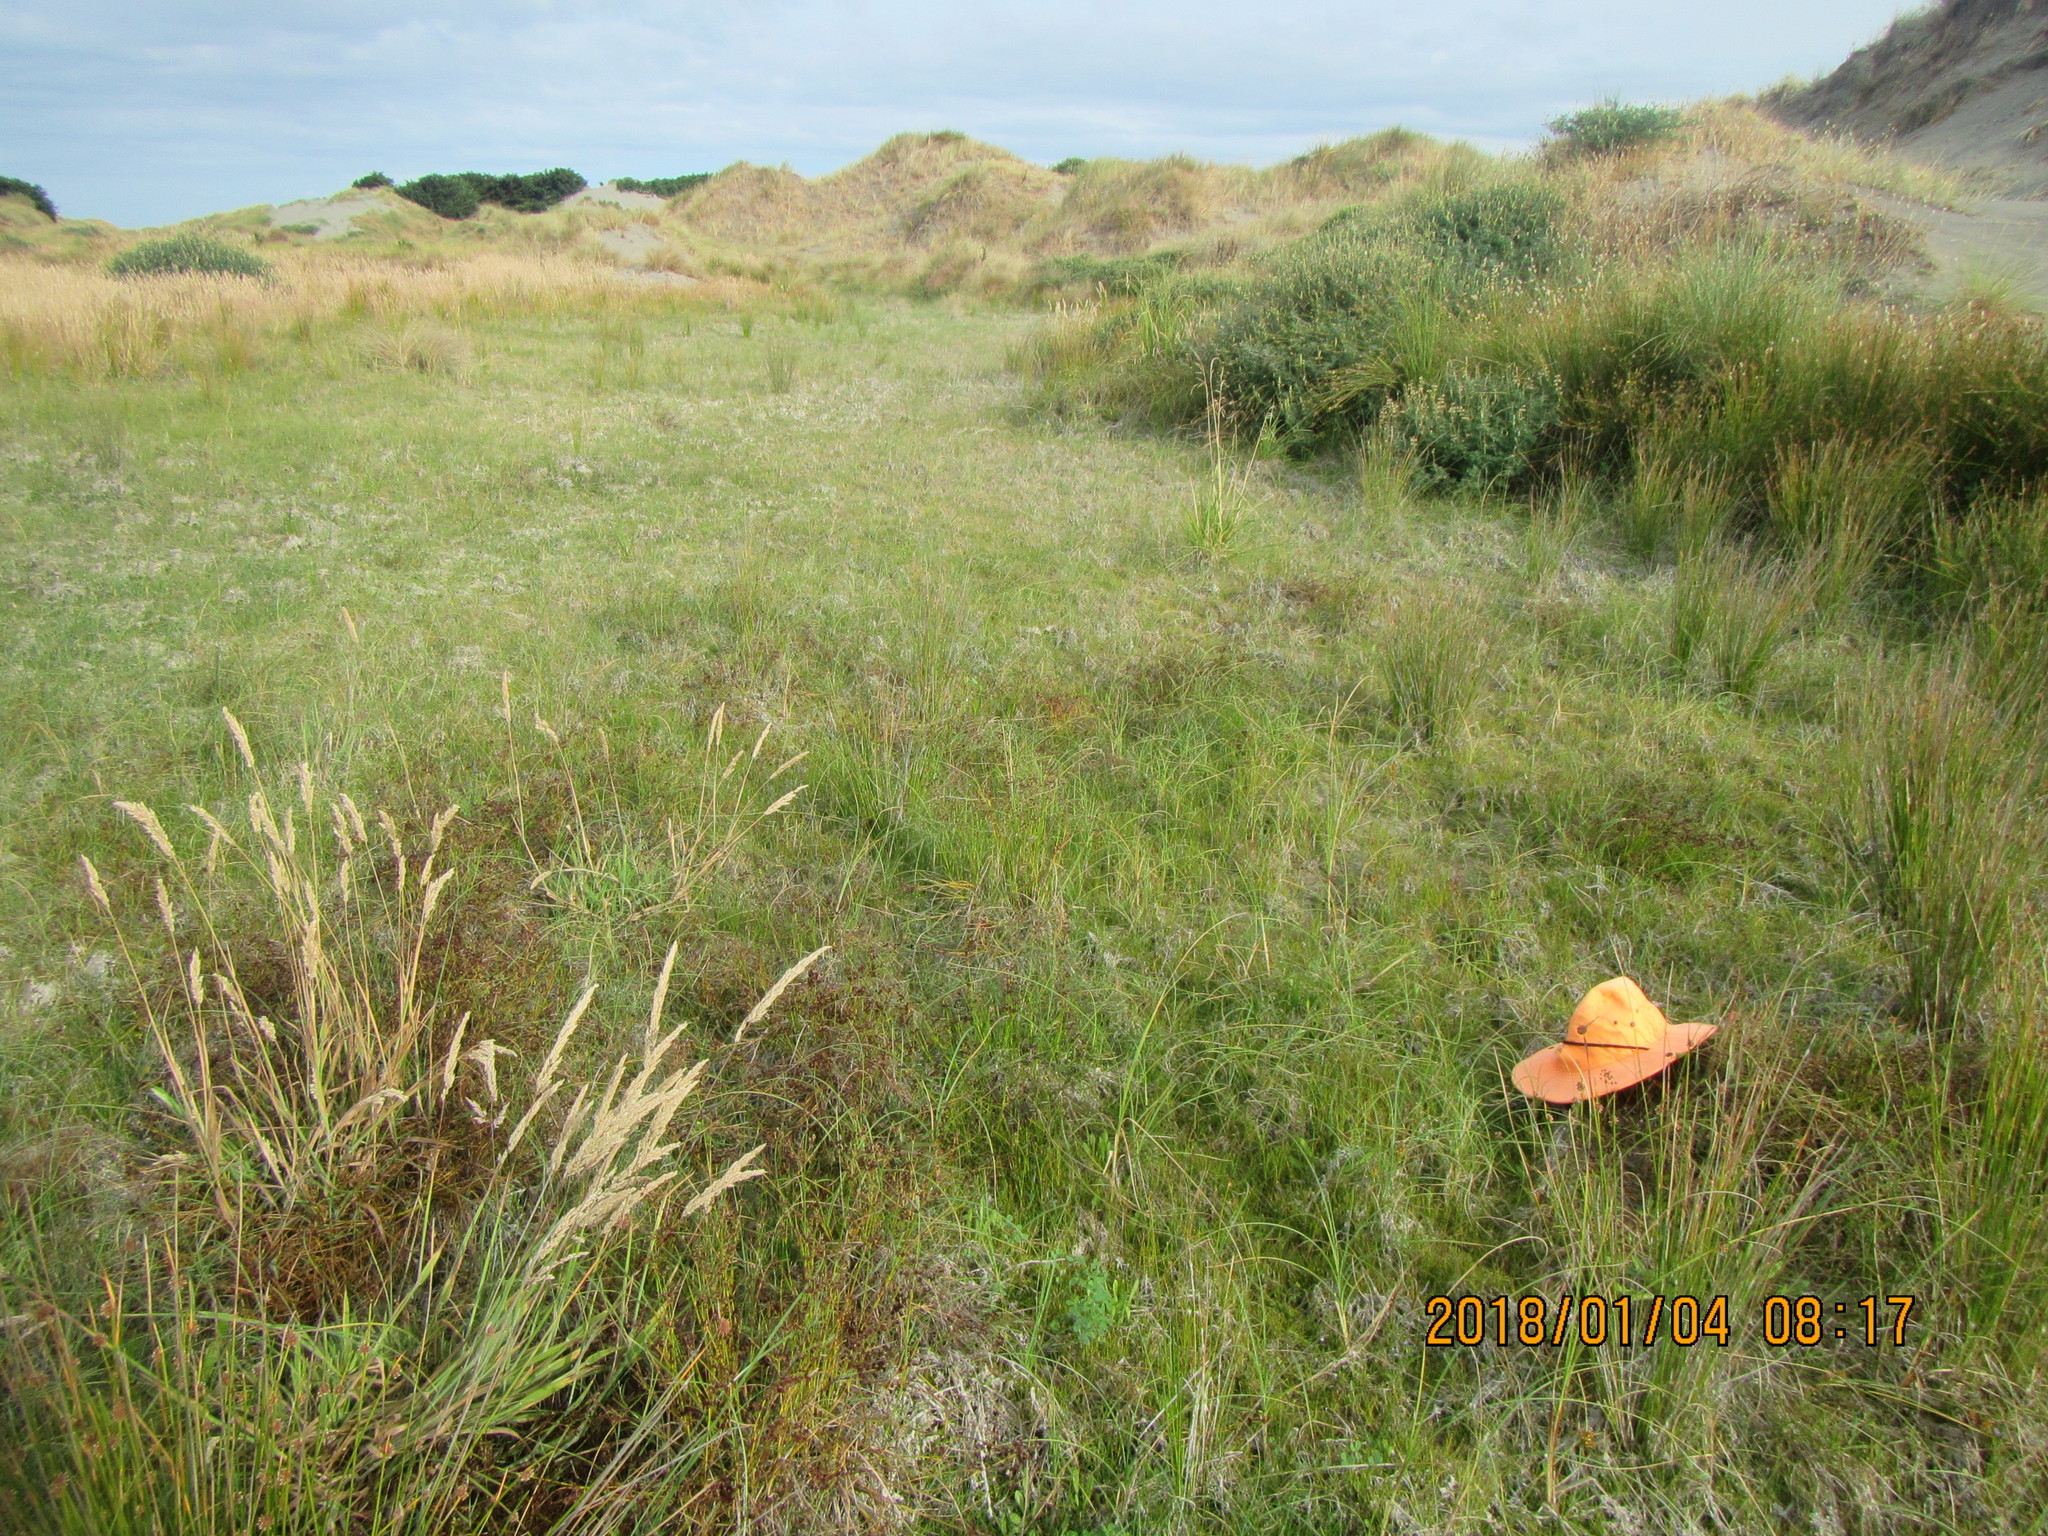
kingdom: Plantae
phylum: Tracheophyta
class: Magnoliopsida
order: Apiales
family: Apiaceae
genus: Lilaeopsis
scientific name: Lilaeopsis novae-zelandiae
